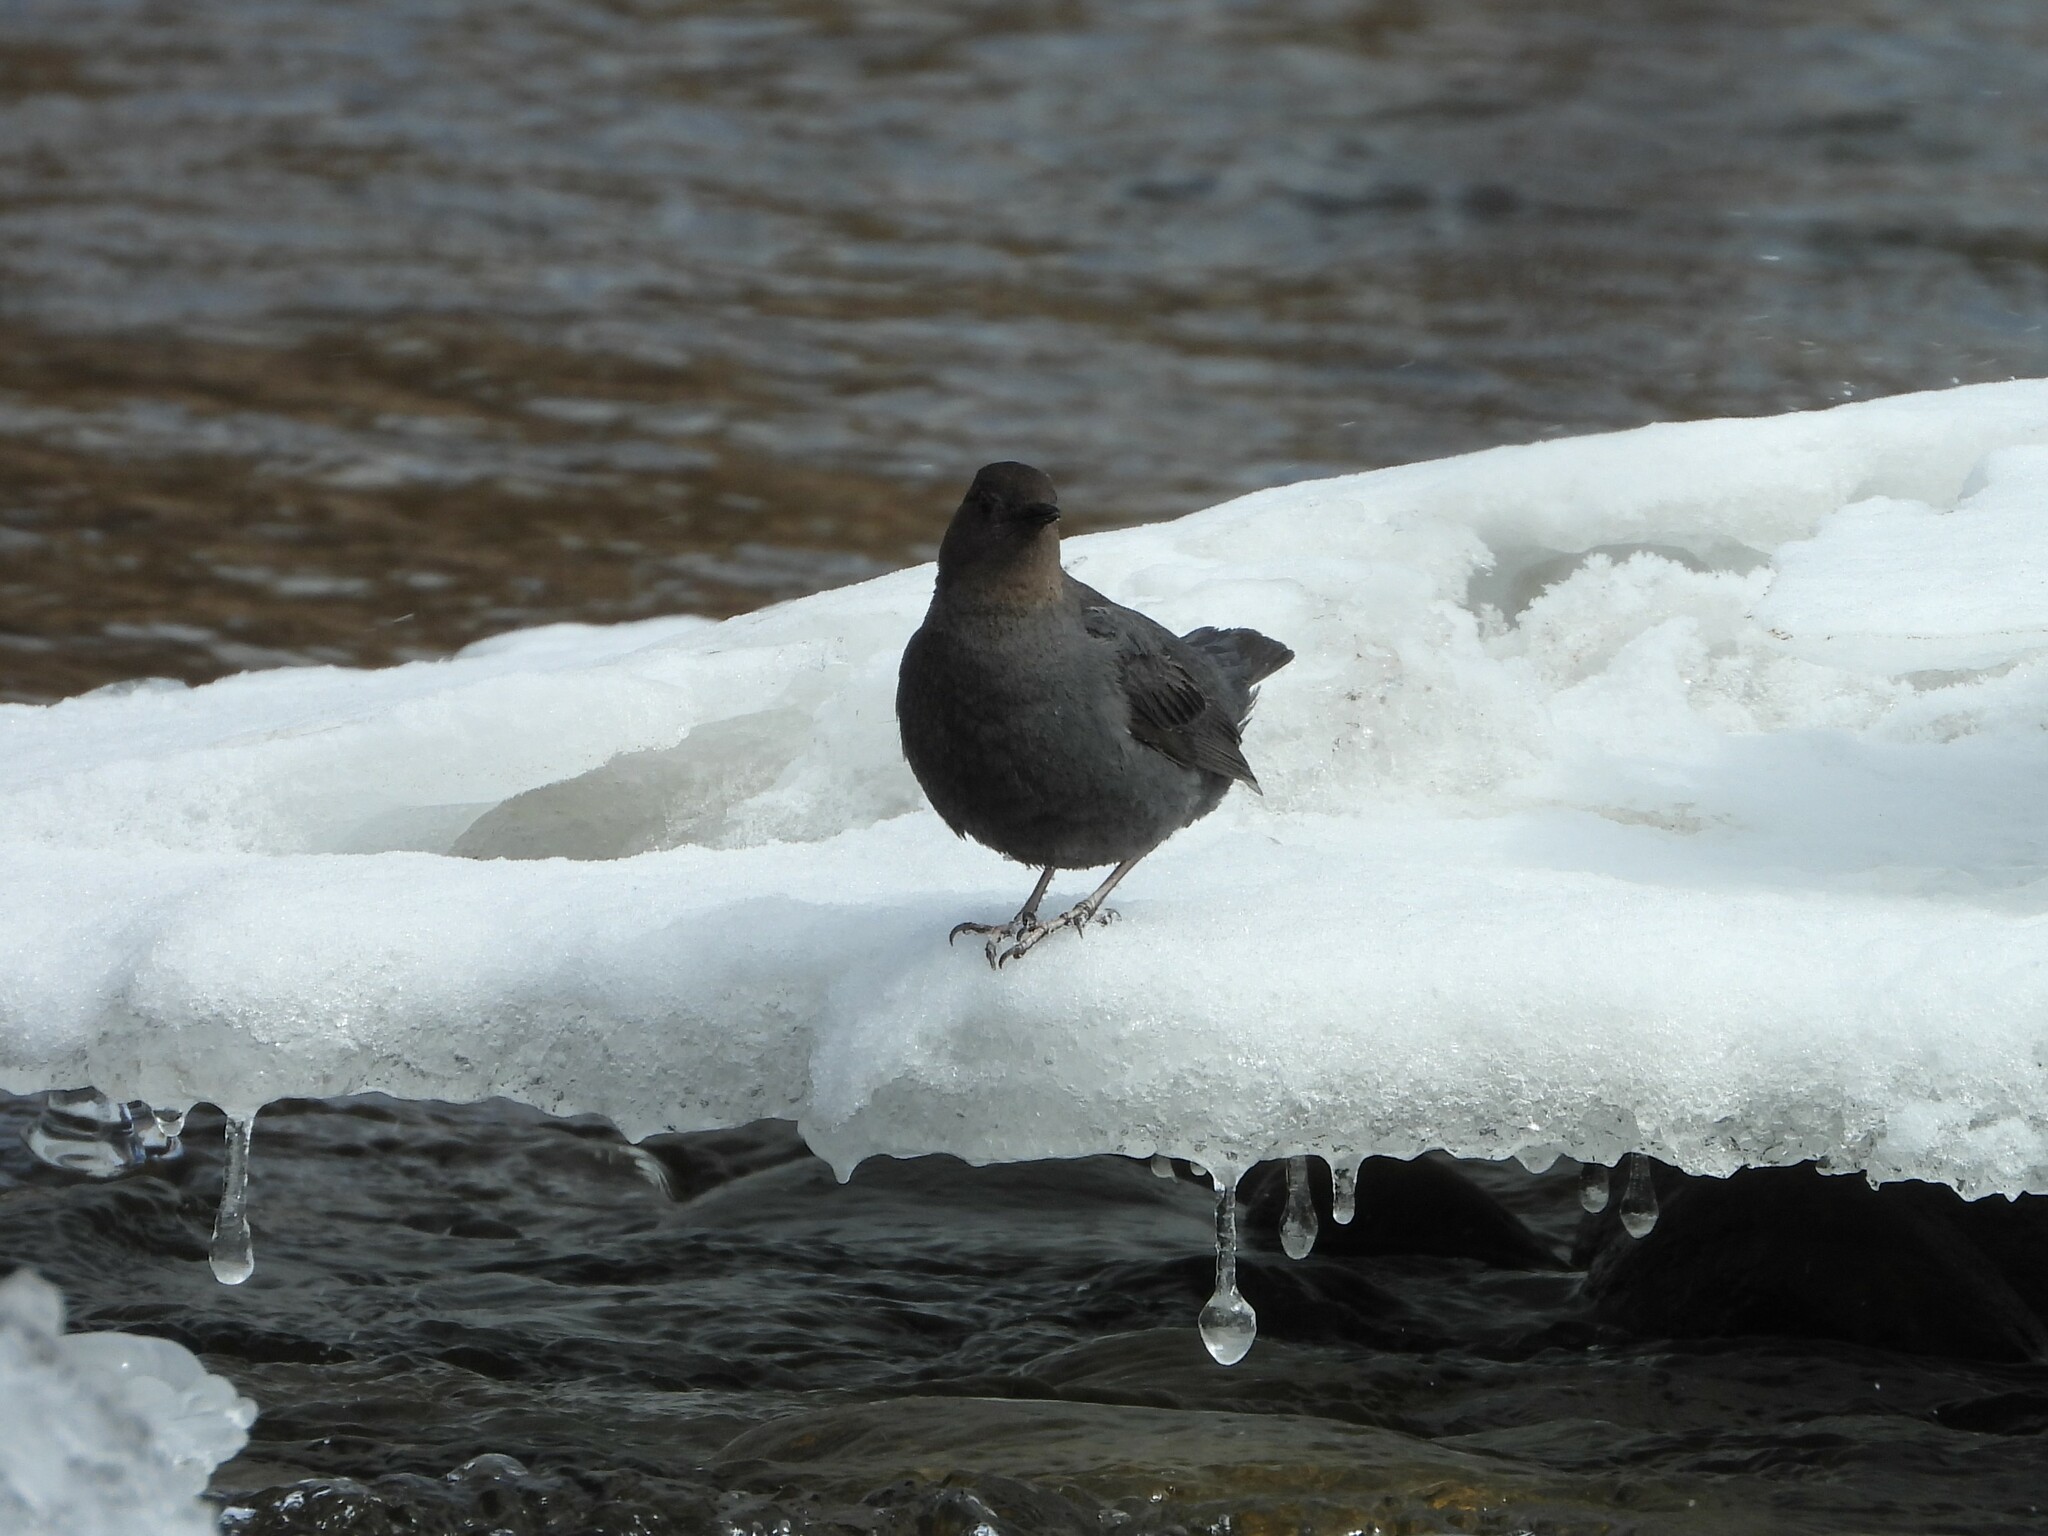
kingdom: Animalia
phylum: Chordata
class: Aves
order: Passeriformes
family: Cinclidae
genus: Cinclus
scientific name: Cinclus mexicanus
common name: American dipper
